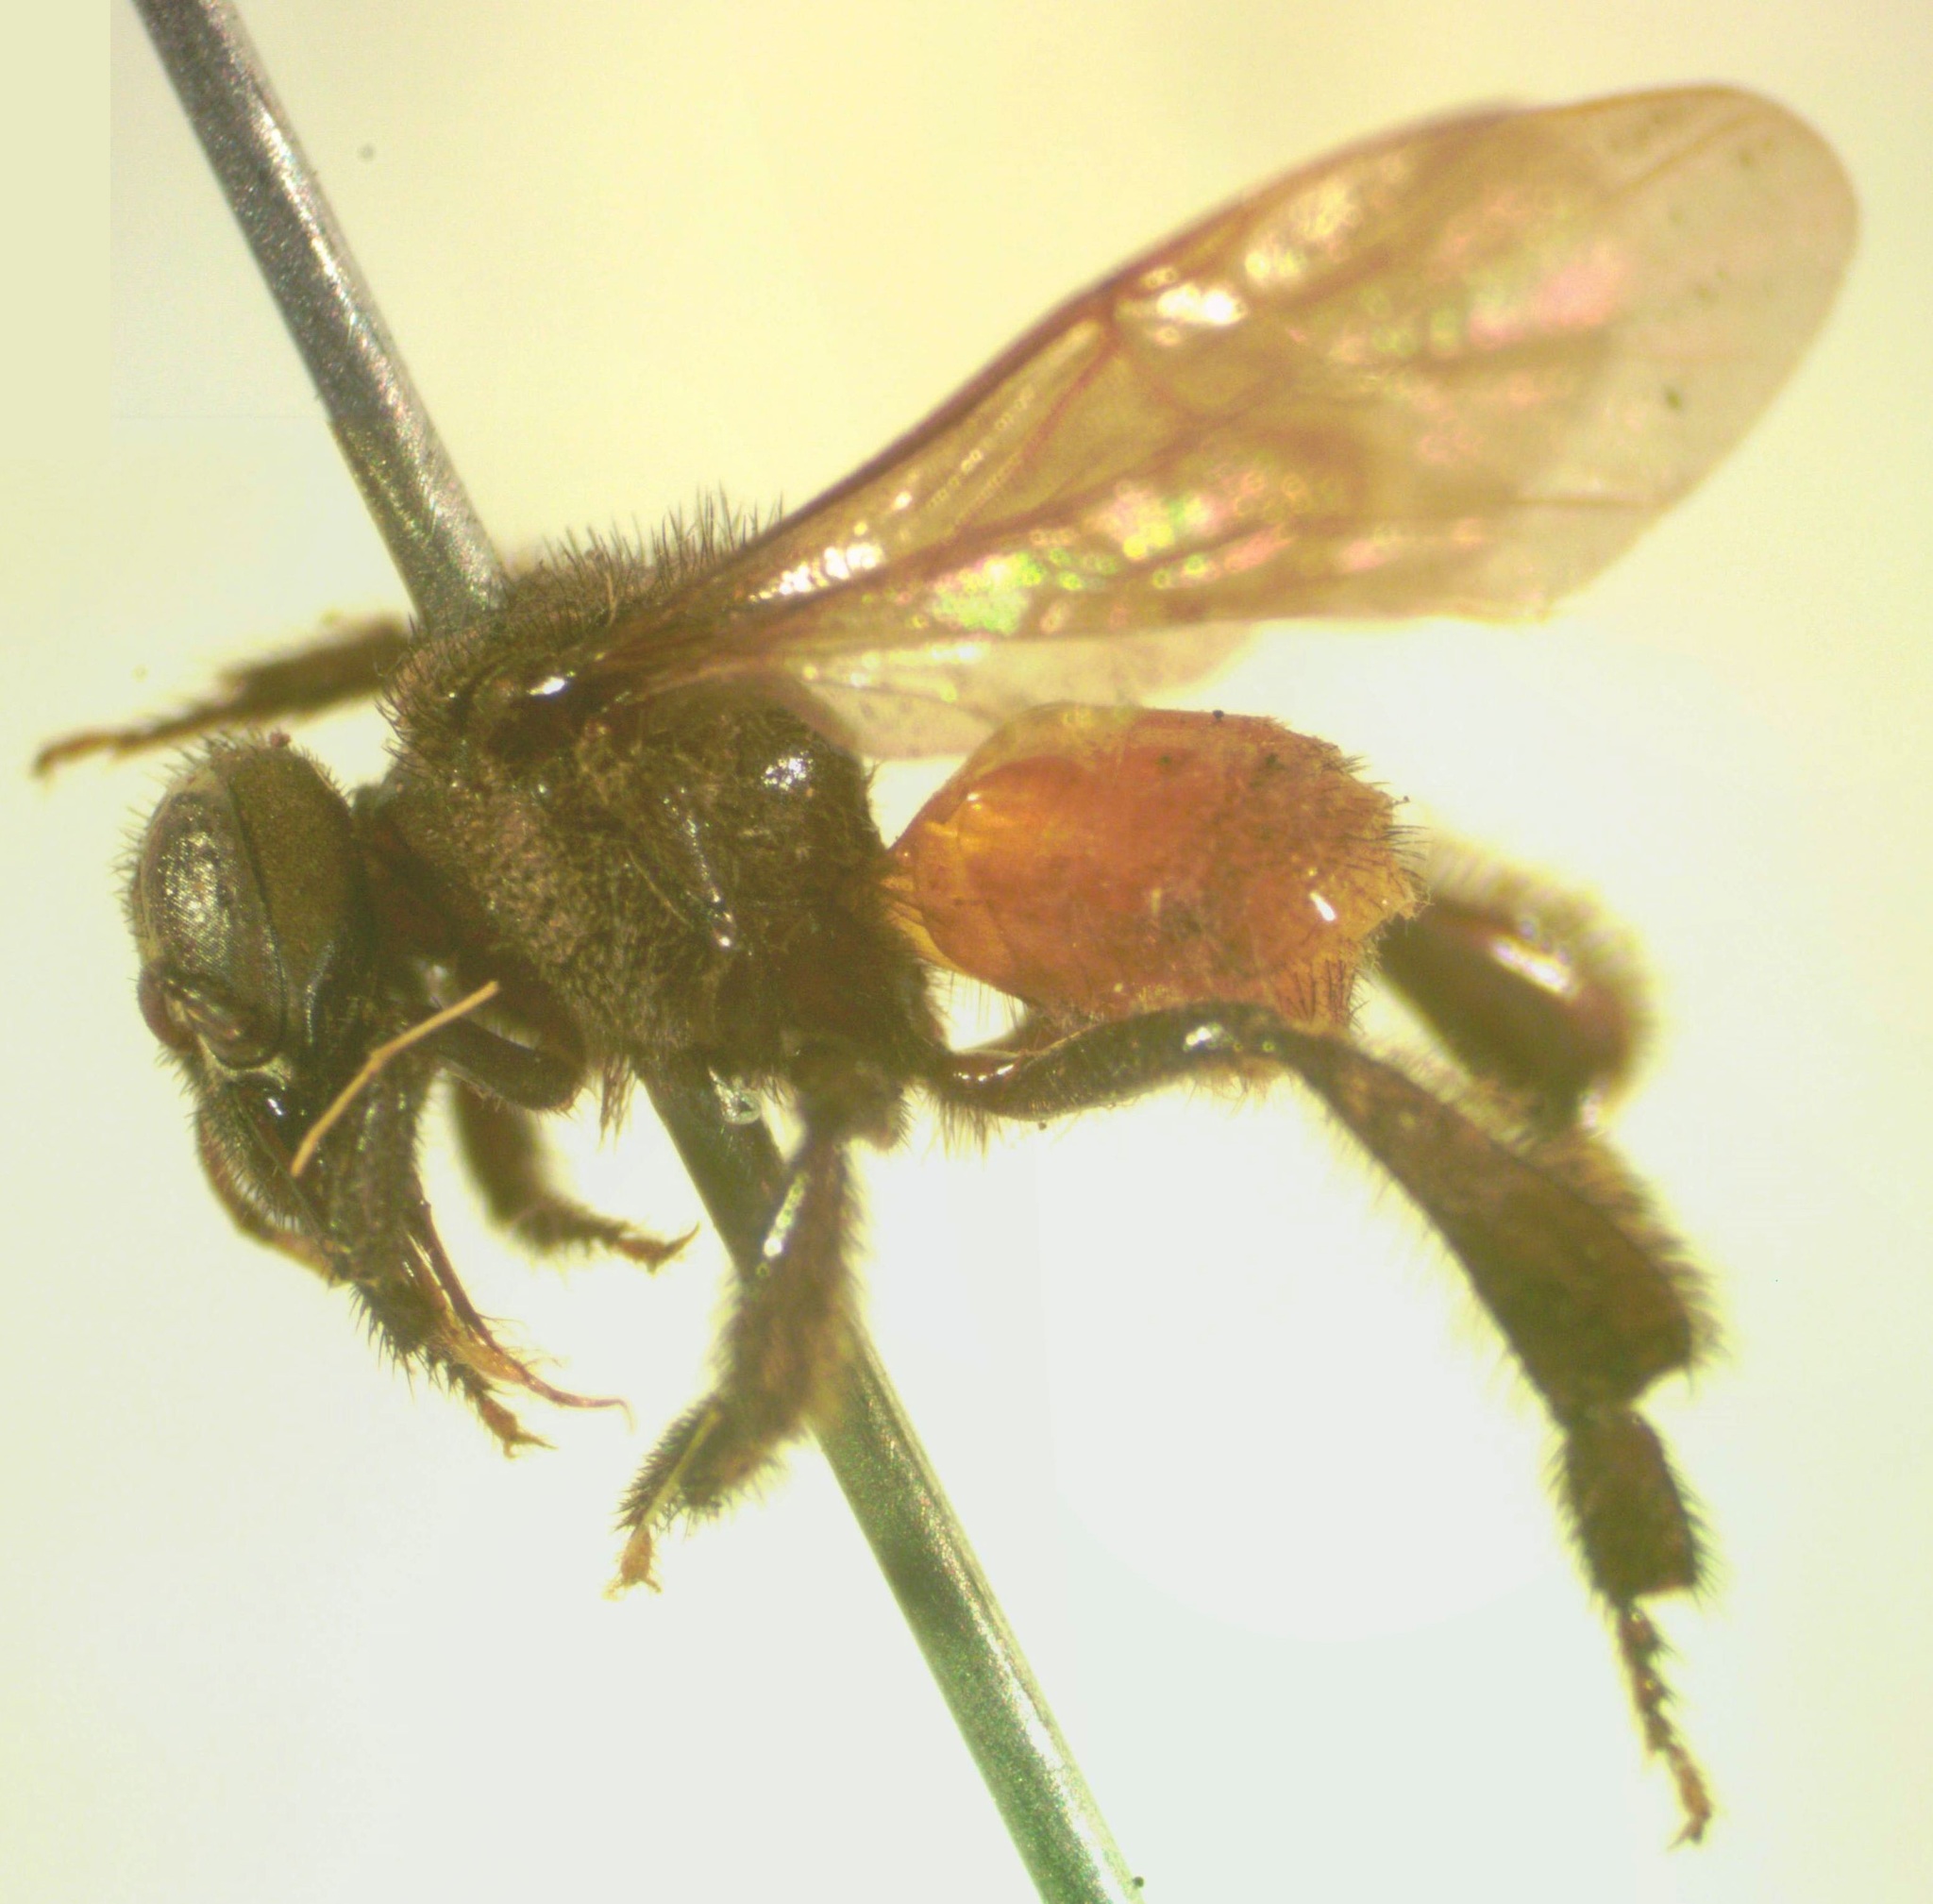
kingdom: Animalia
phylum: Arthropoda
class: Insecta
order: Hymenoptera
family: Apidae
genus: Trigona
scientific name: Trigona fulviventris
